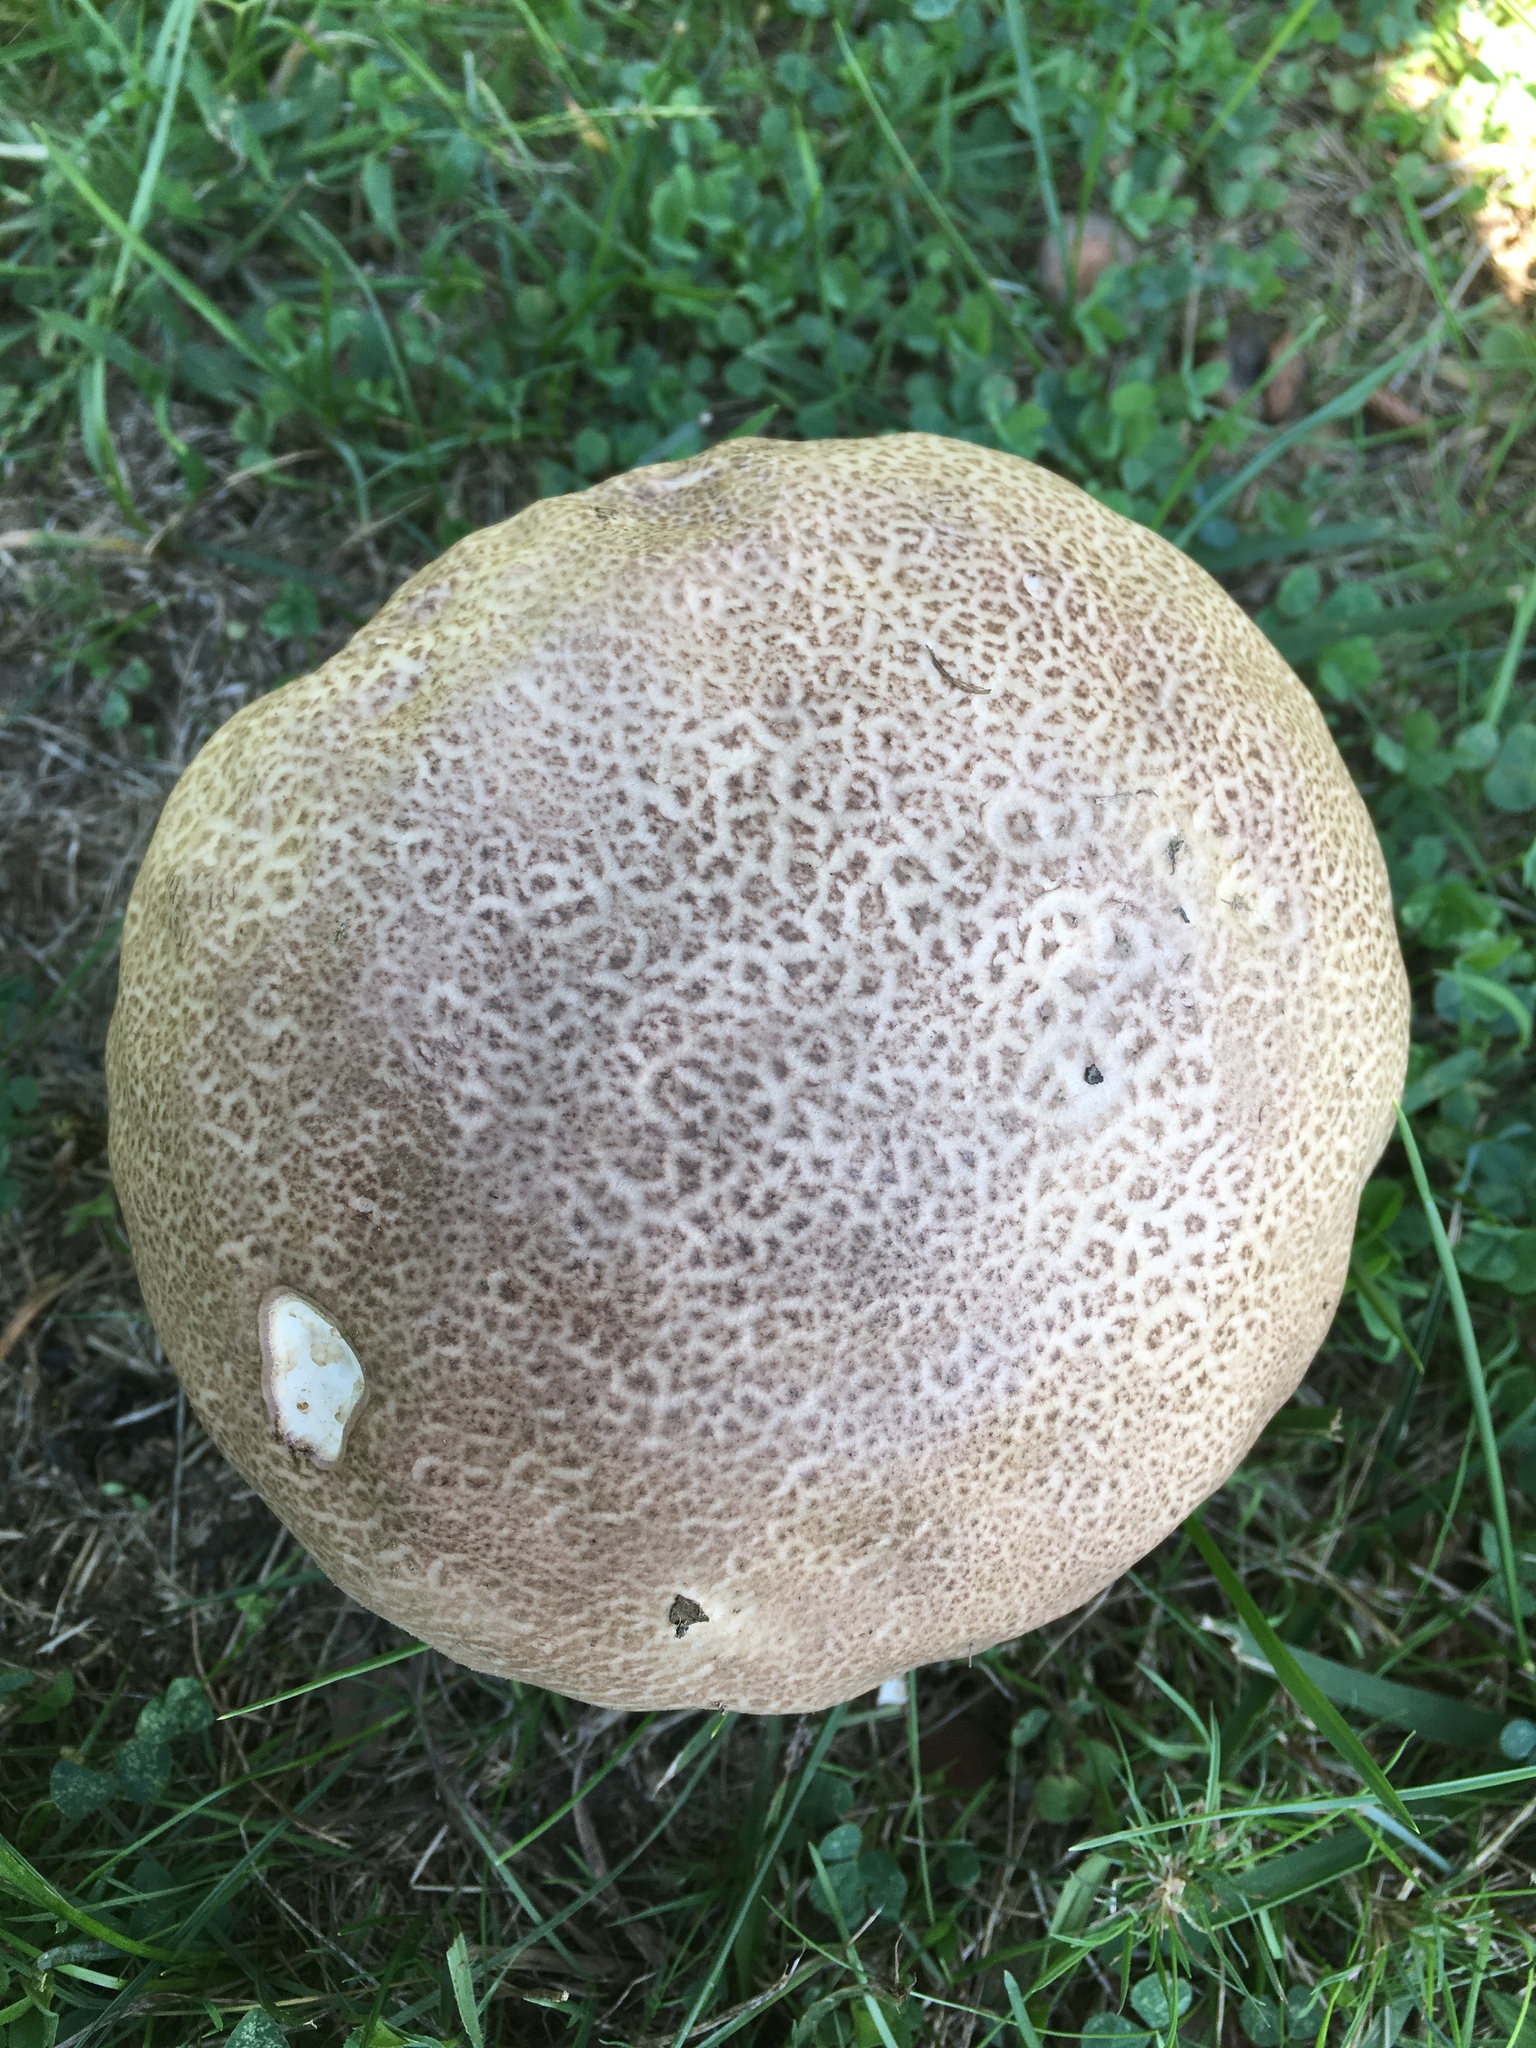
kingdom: Fungi
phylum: Basidiomycota
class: Agaricomycetes
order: Agaricales
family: Lycoperdaceae
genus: Calvatia
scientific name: Calvatia craniiformis
